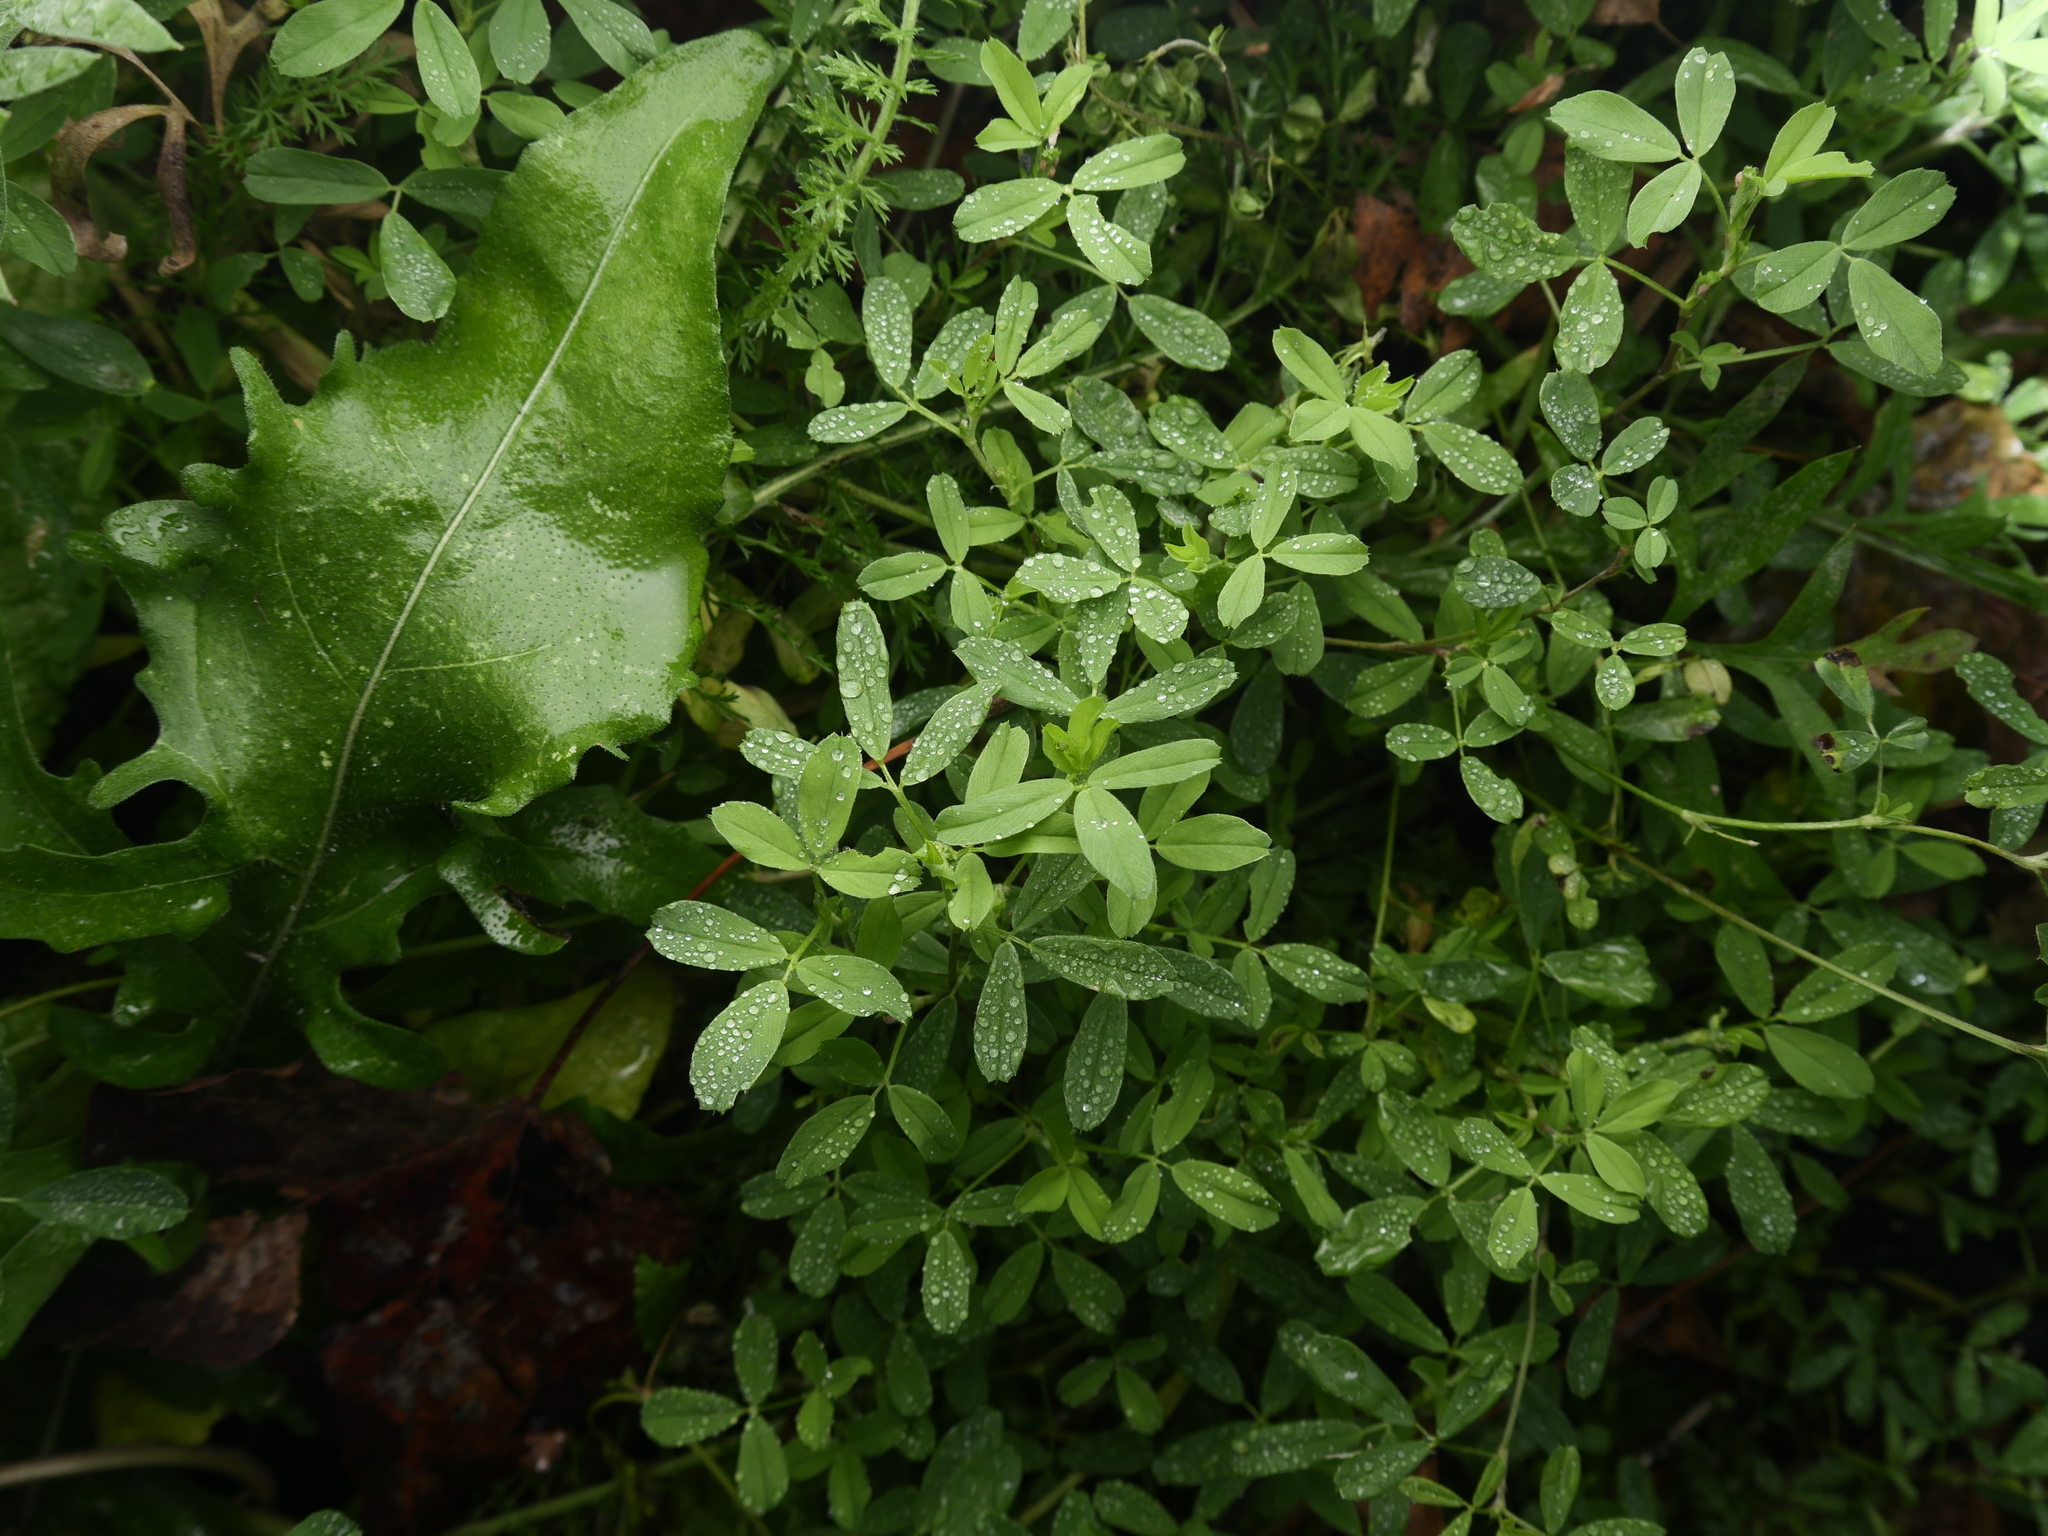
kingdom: Plantae
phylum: Tracheophyta
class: Magnoliopsida
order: Fabales
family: Fabaceae
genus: Melilotus
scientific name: Melilotus albus
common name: White melilot
